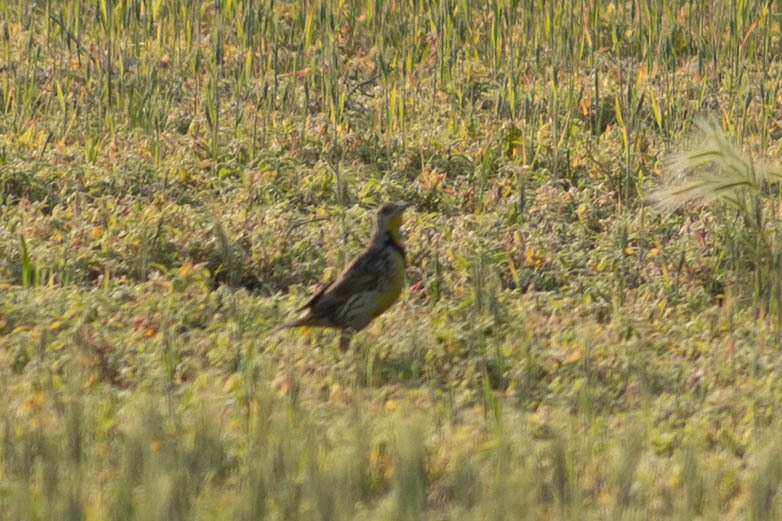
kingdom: Animalia
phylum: Chordata
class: Aves
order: Passeriformes
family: Icteridae
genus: Sturnella
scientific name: Sturnella neglecta
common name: Western meadowlark
